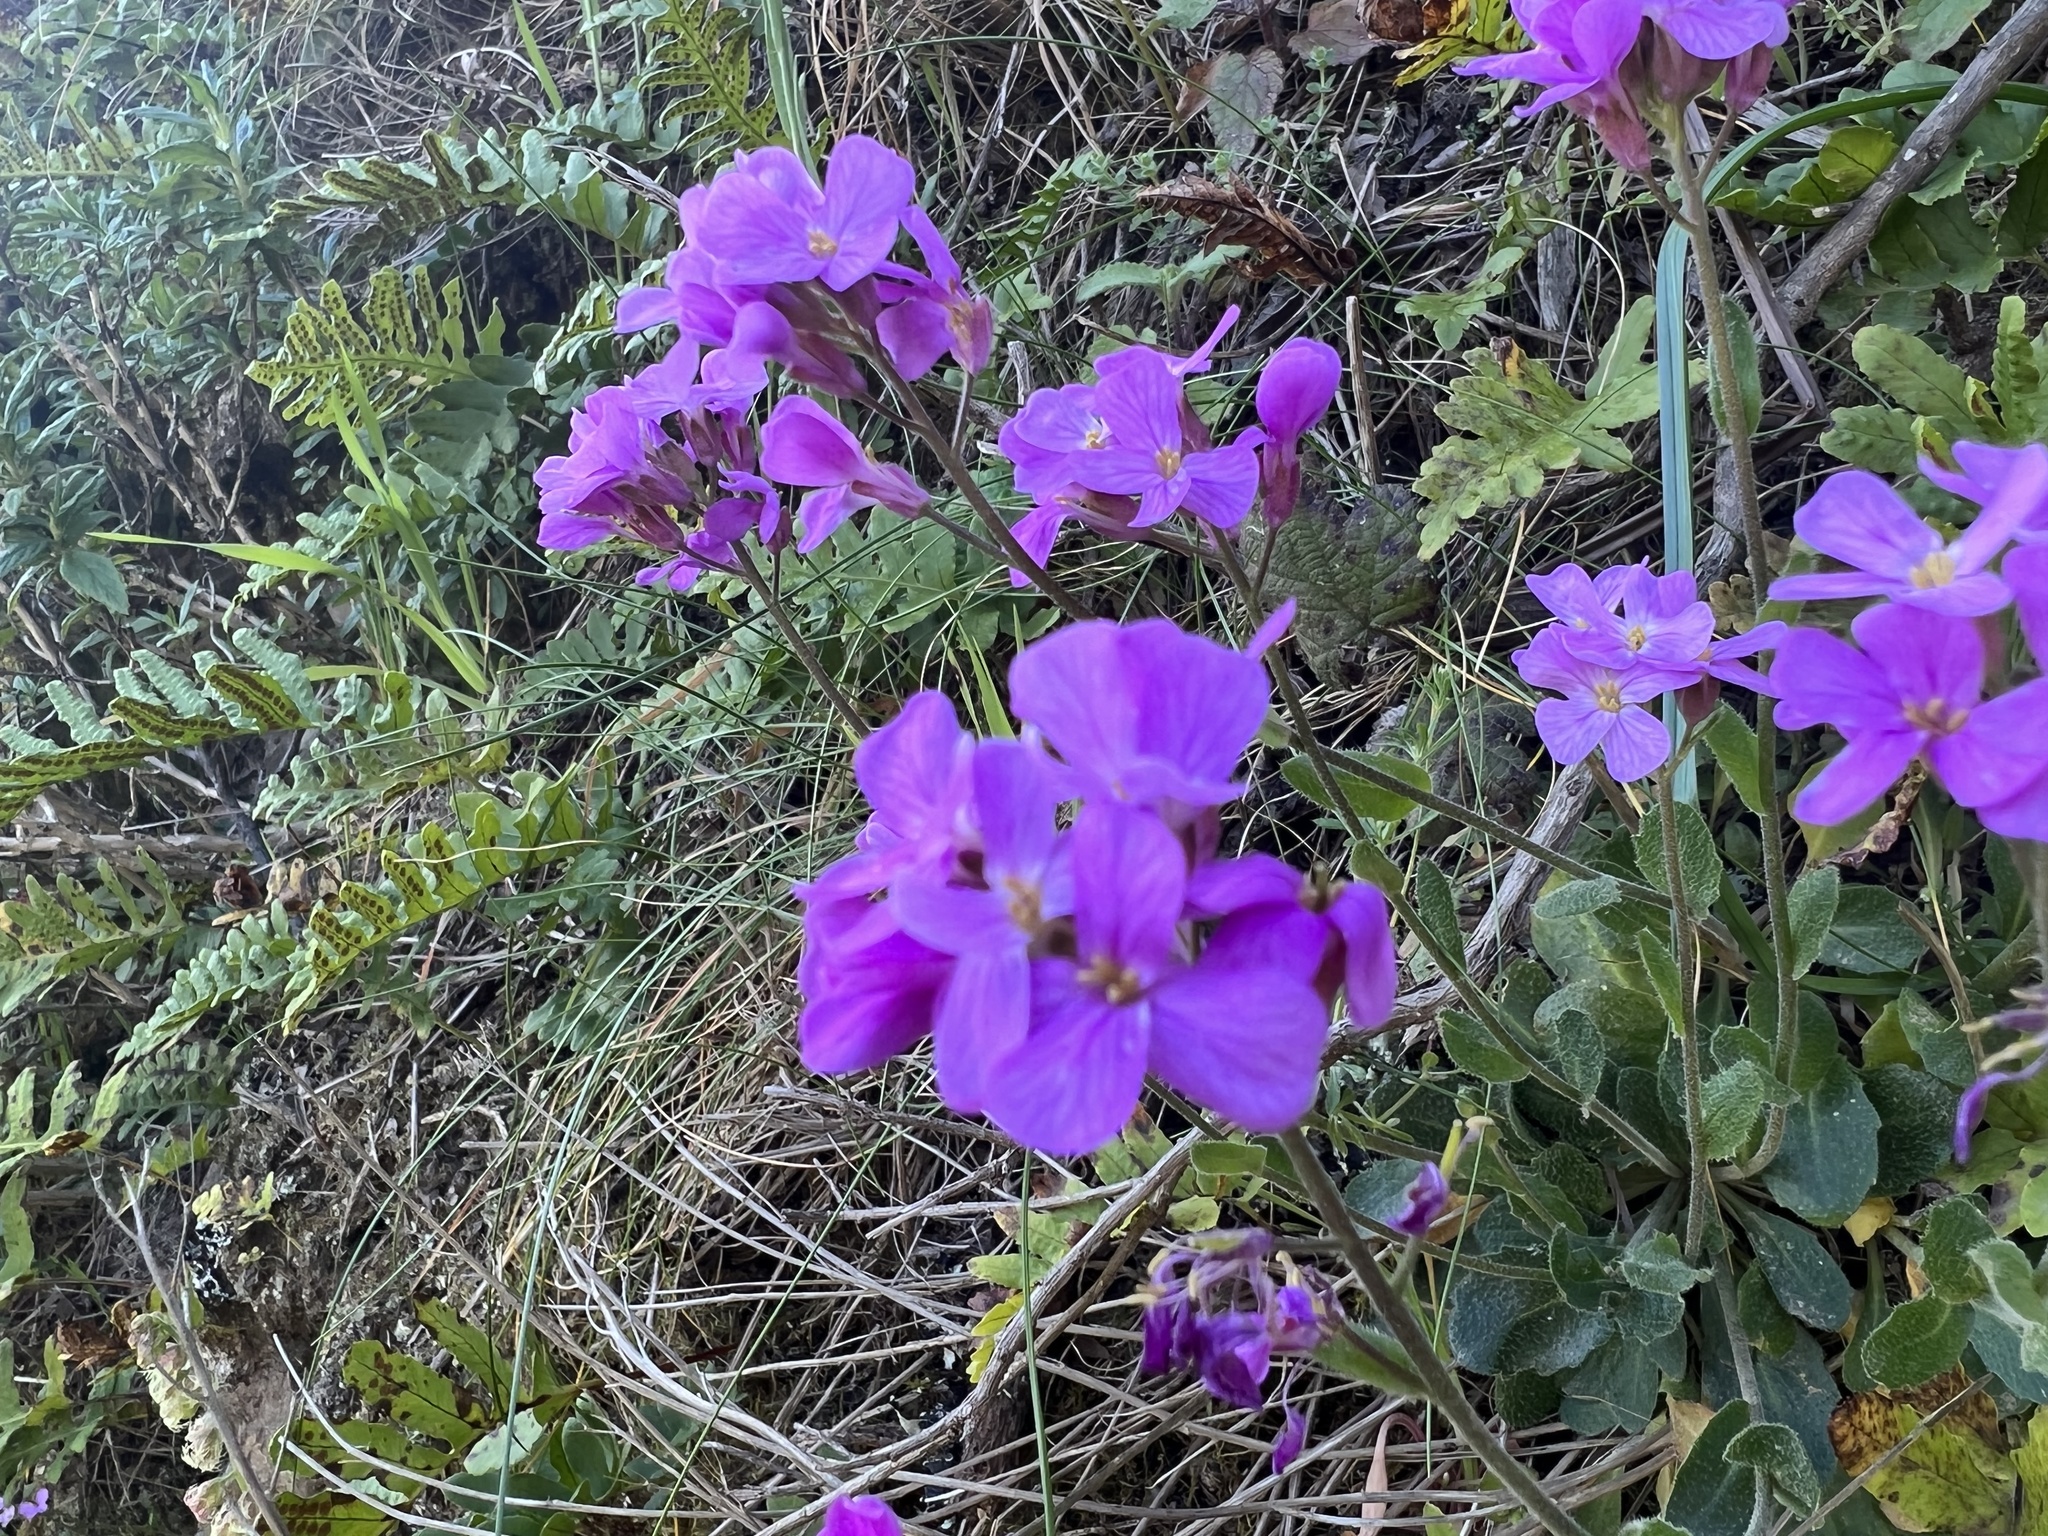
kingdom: Plantae
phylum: Tracheophyta
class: Magnoliopsida
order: Brassicales
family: Brassicaceae
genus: Arabis
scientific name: Arabis blepharophylla
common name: Rose rockcress
